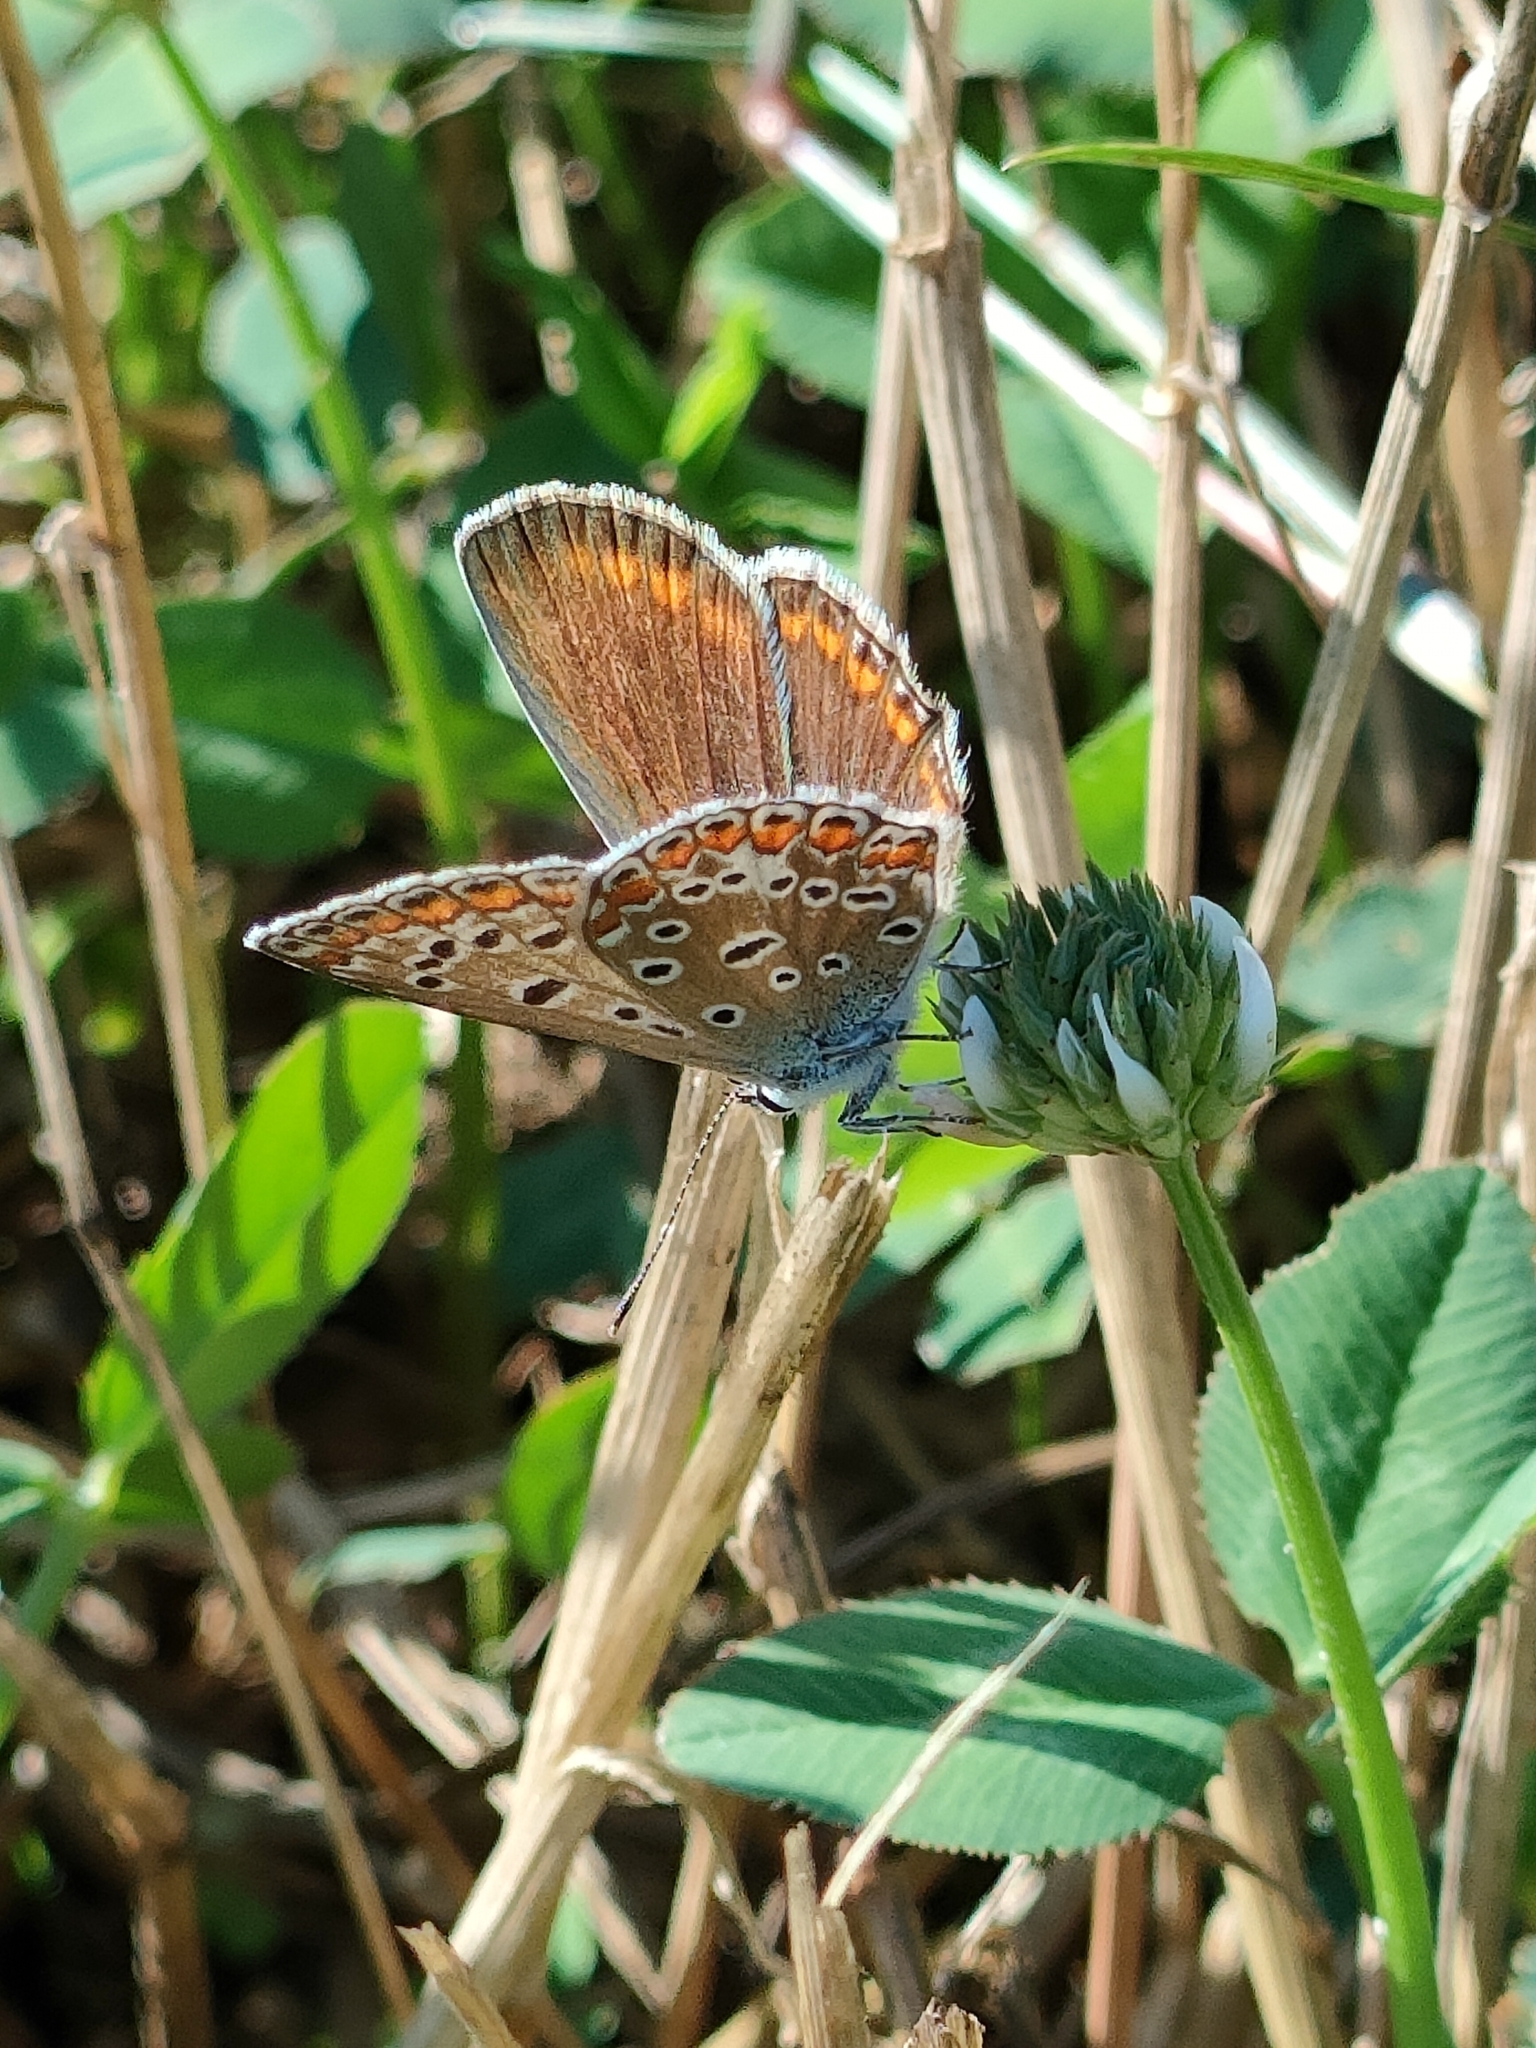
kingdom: Animalia
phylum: Arthropoda
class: Insecta
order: Lepidoptera
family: Lycaenidae
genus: Polyommatus
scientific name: Polyommatus icarus
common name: Common blue
